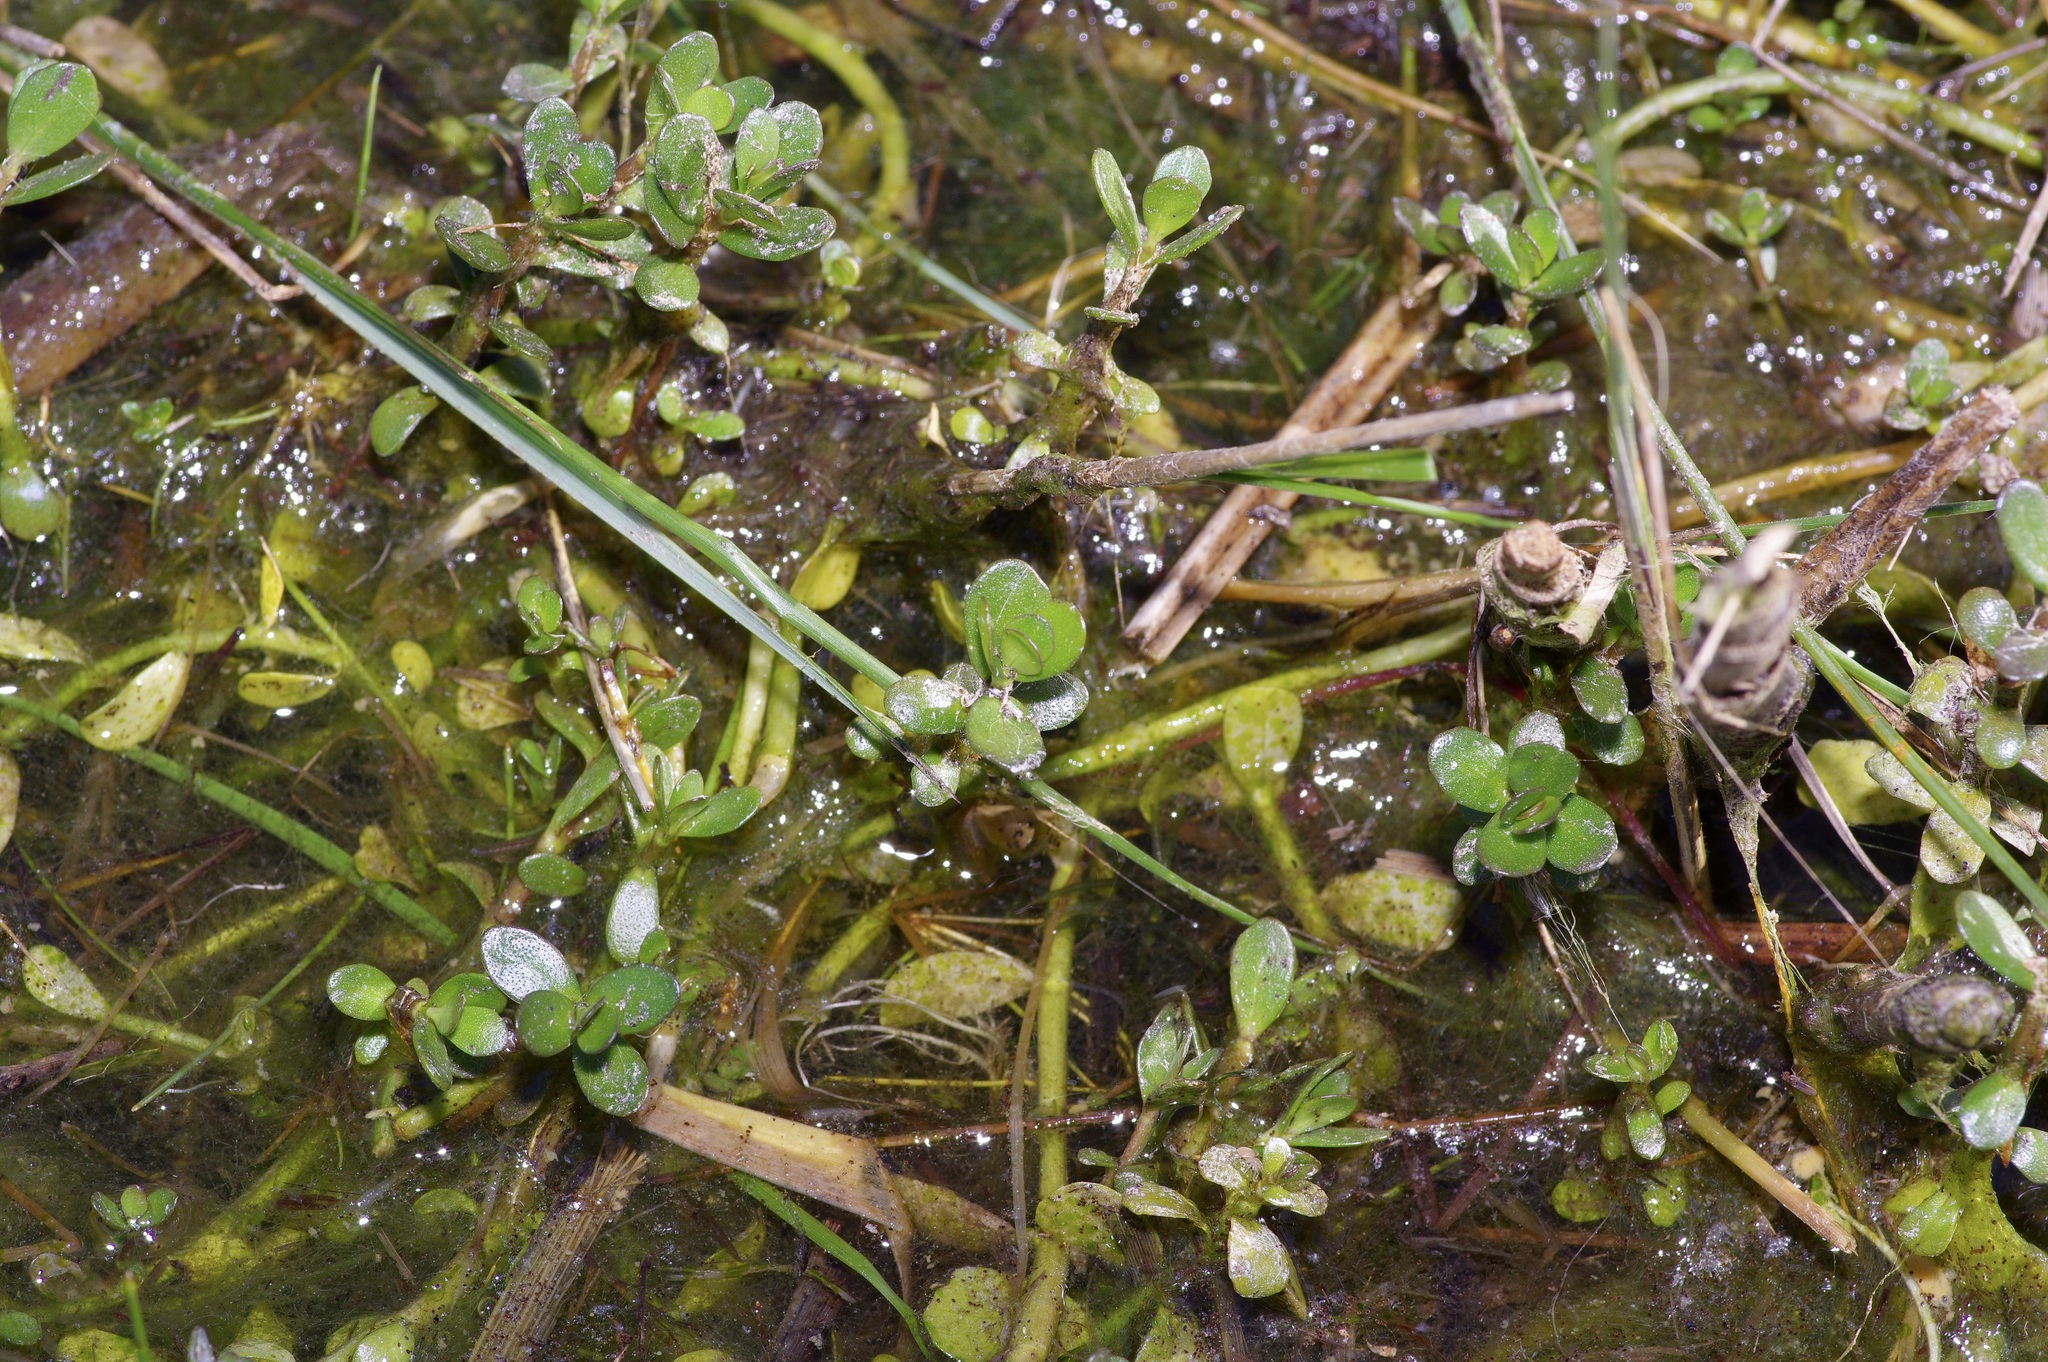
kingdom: Plantae
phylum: Tracheophyta
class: Magnoliopsida
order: Lamiales
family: Plantaginaceae
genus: Bacopa
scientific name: Bacopa monnieri
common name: Indian-pennywort
